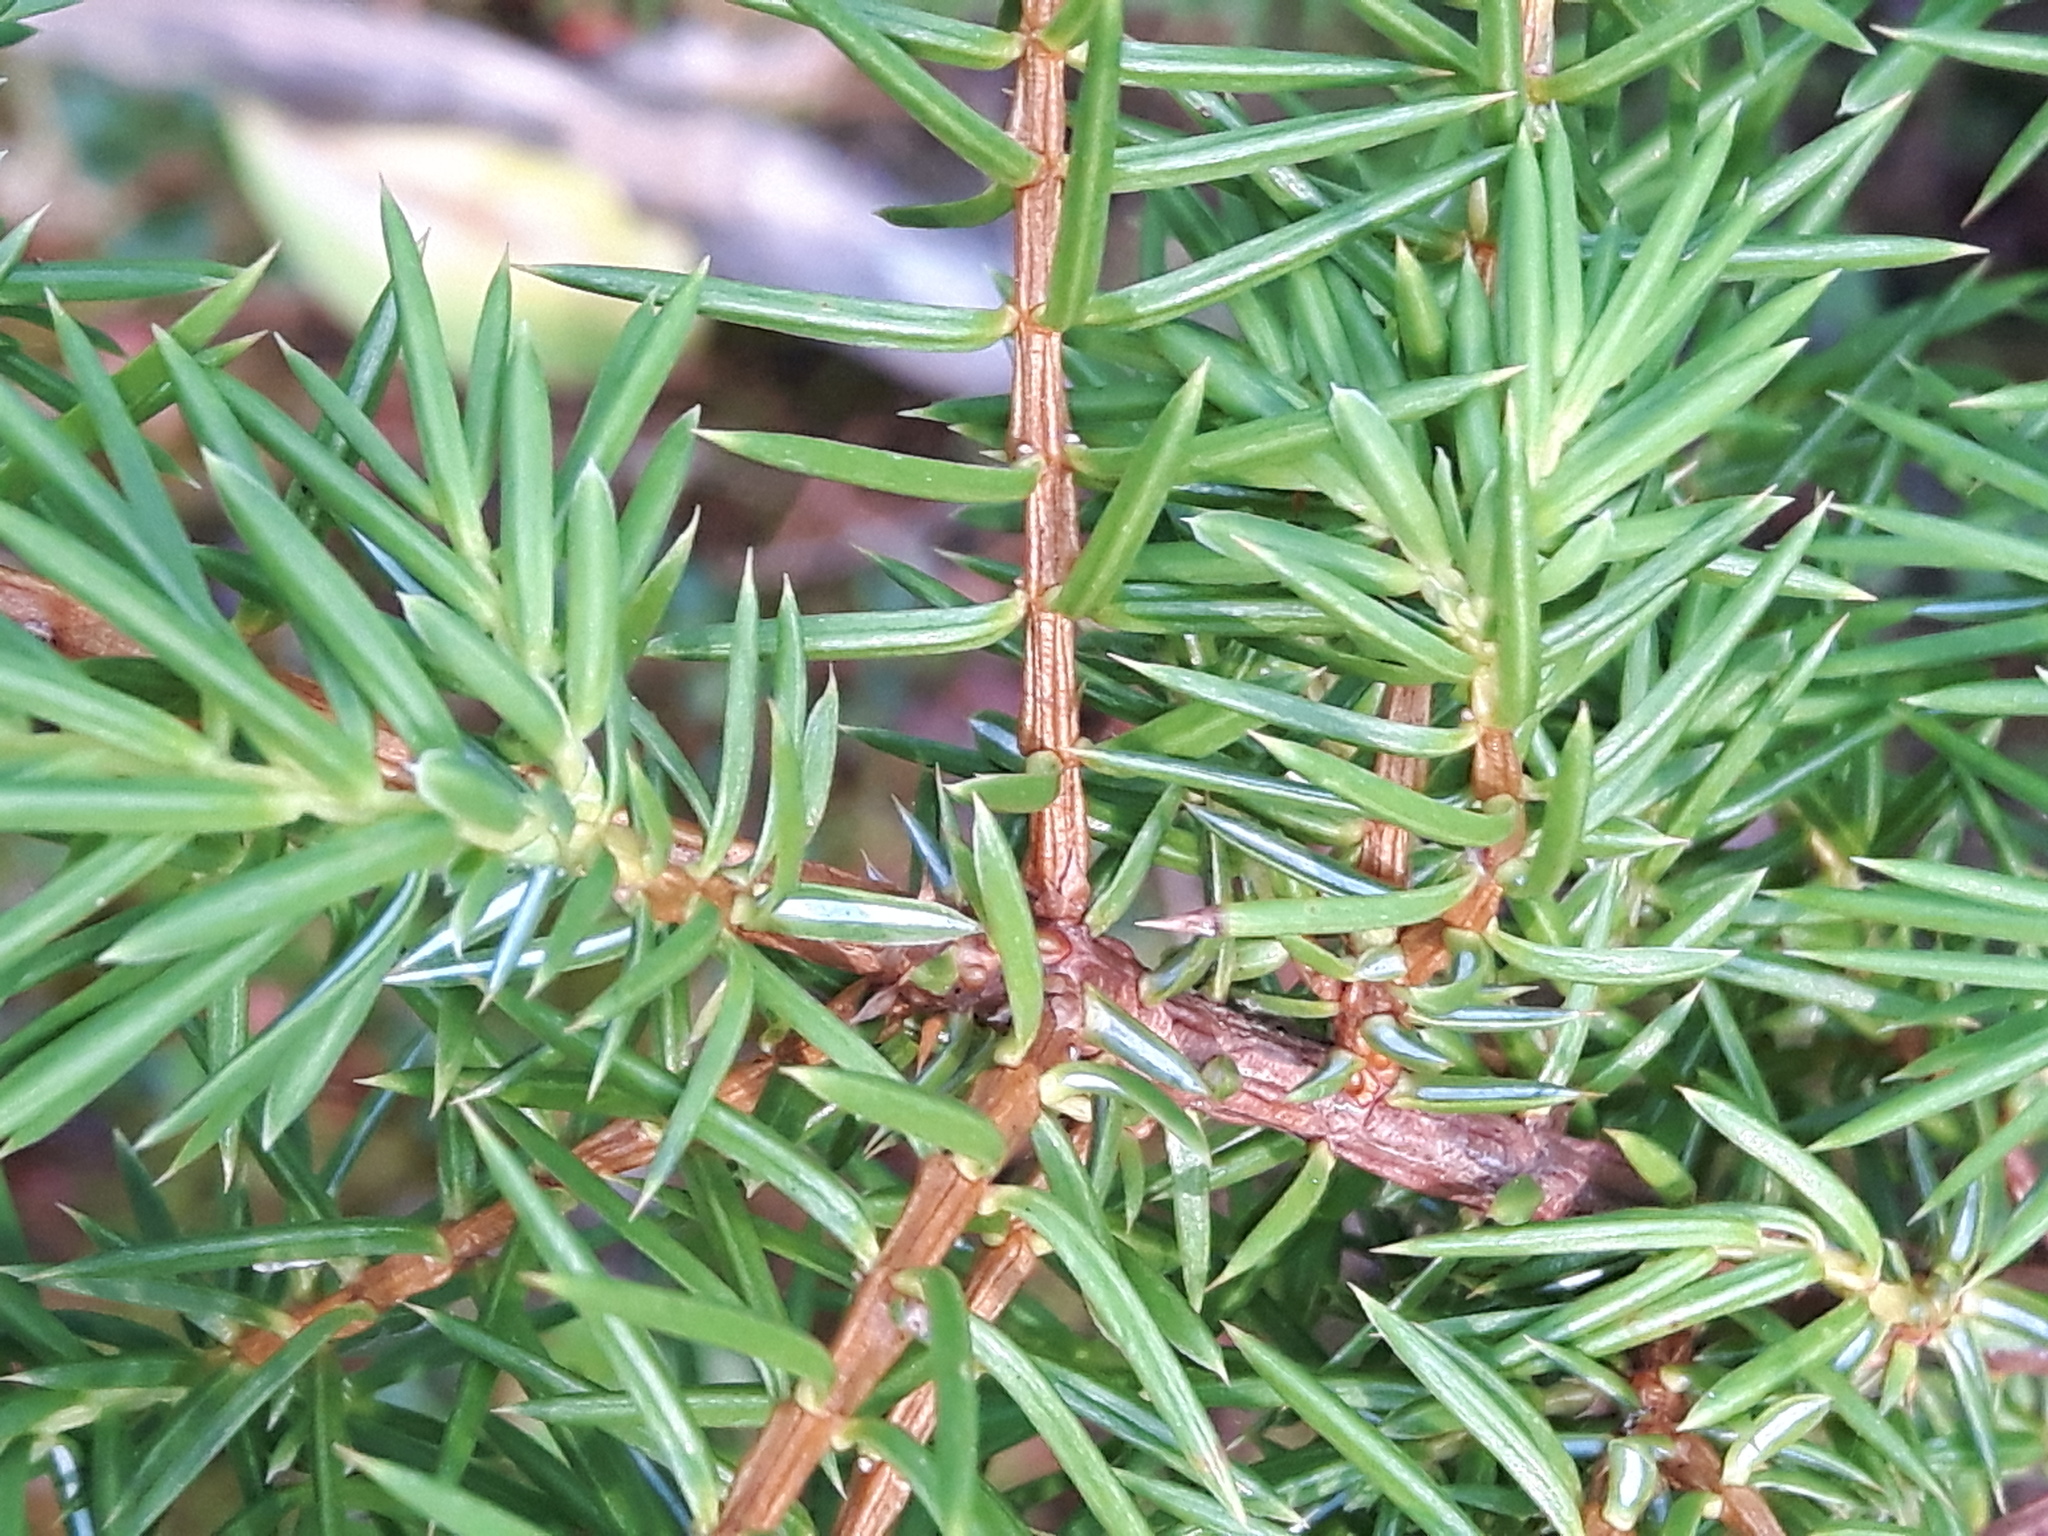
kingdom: Plantae
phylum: Tracheophyta
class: Pinopsida
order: Pinales
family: Cupressaceae
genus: Juniperus
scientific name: Juniperus communis
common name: Common juniper
